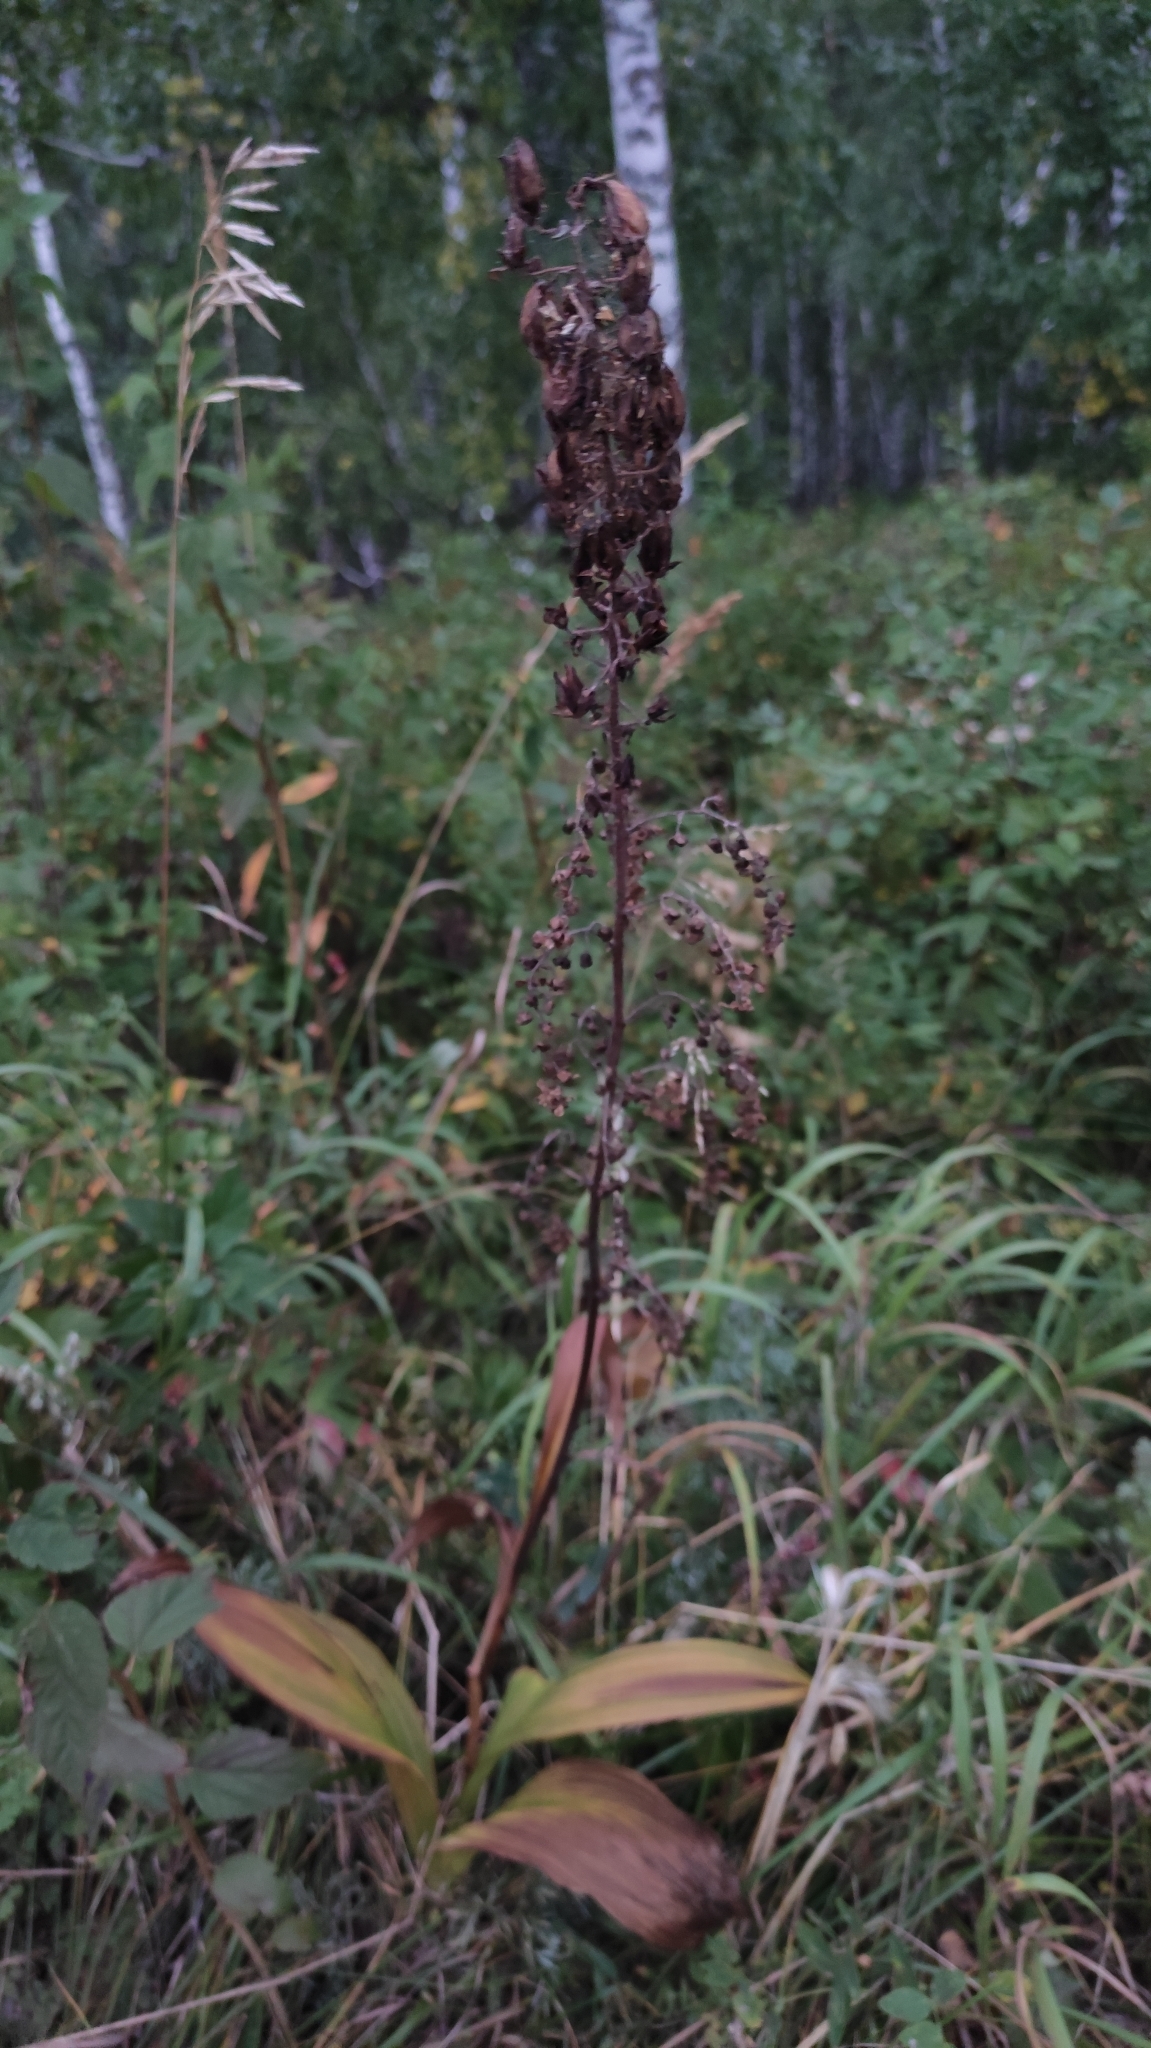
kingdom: Plantae
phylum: Tracheophyta
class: Liliopsida
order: Liliales
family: Melanthiaceae
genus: Veratrum
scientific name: Veratrum nigrum
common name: Black veratrum
